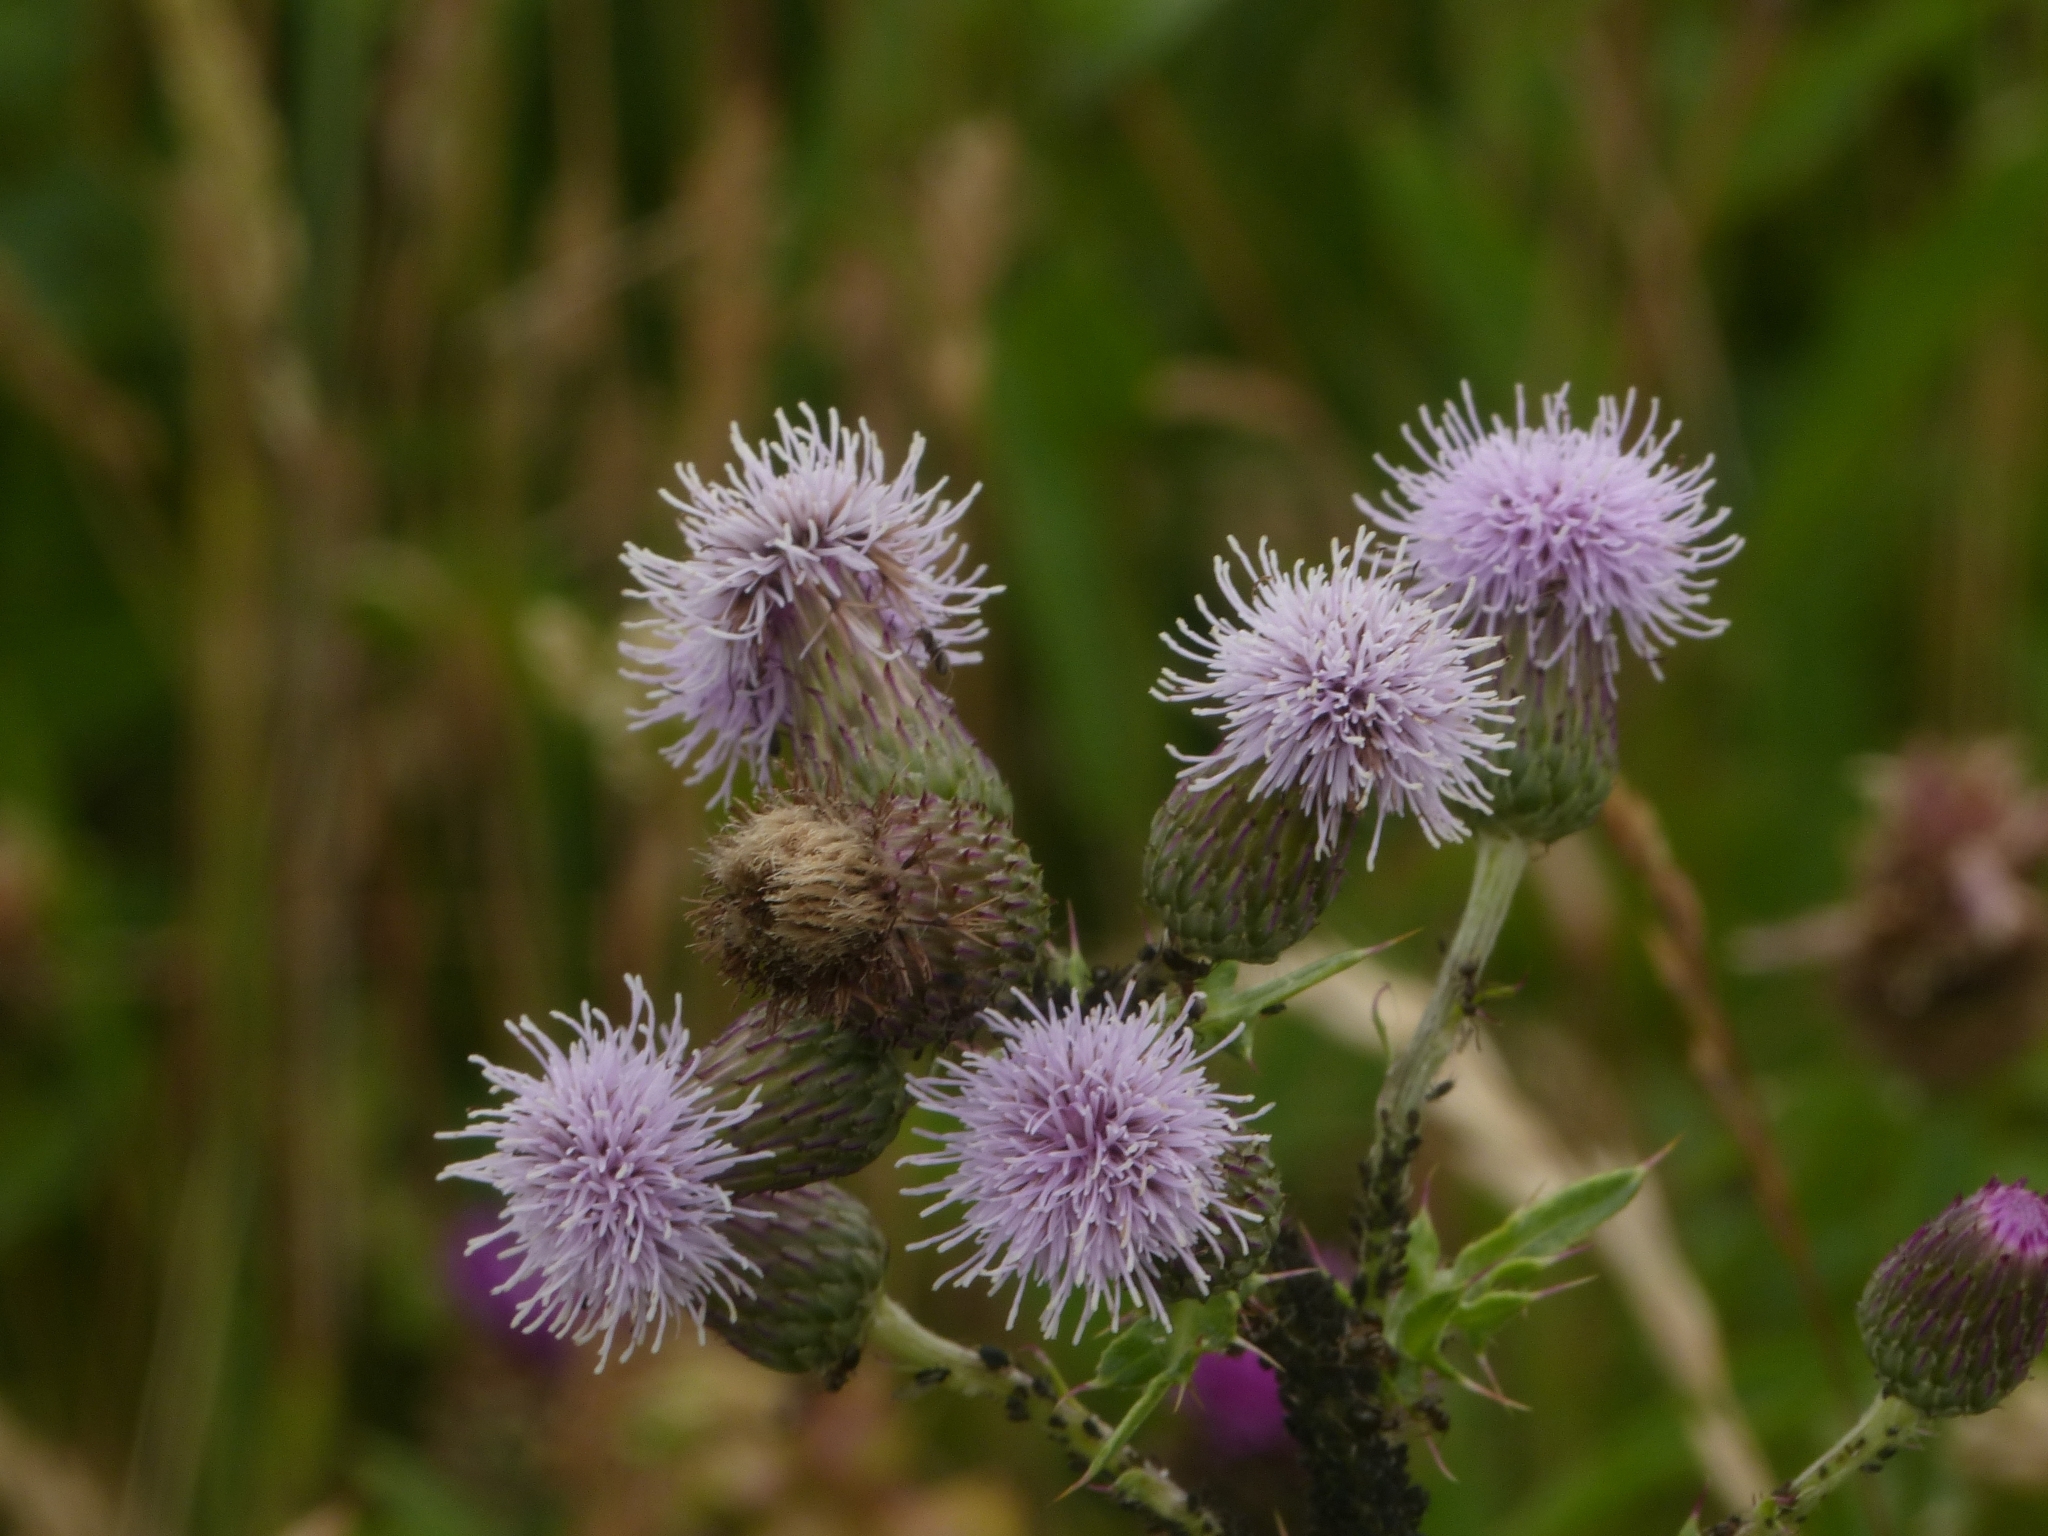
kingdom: Plantae
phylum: Tracheophyta
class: Magnoliopsida
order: Asterales
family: Asteraceae
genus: Cirsium
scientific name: Cirsium arvense
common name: Creeping thistle
